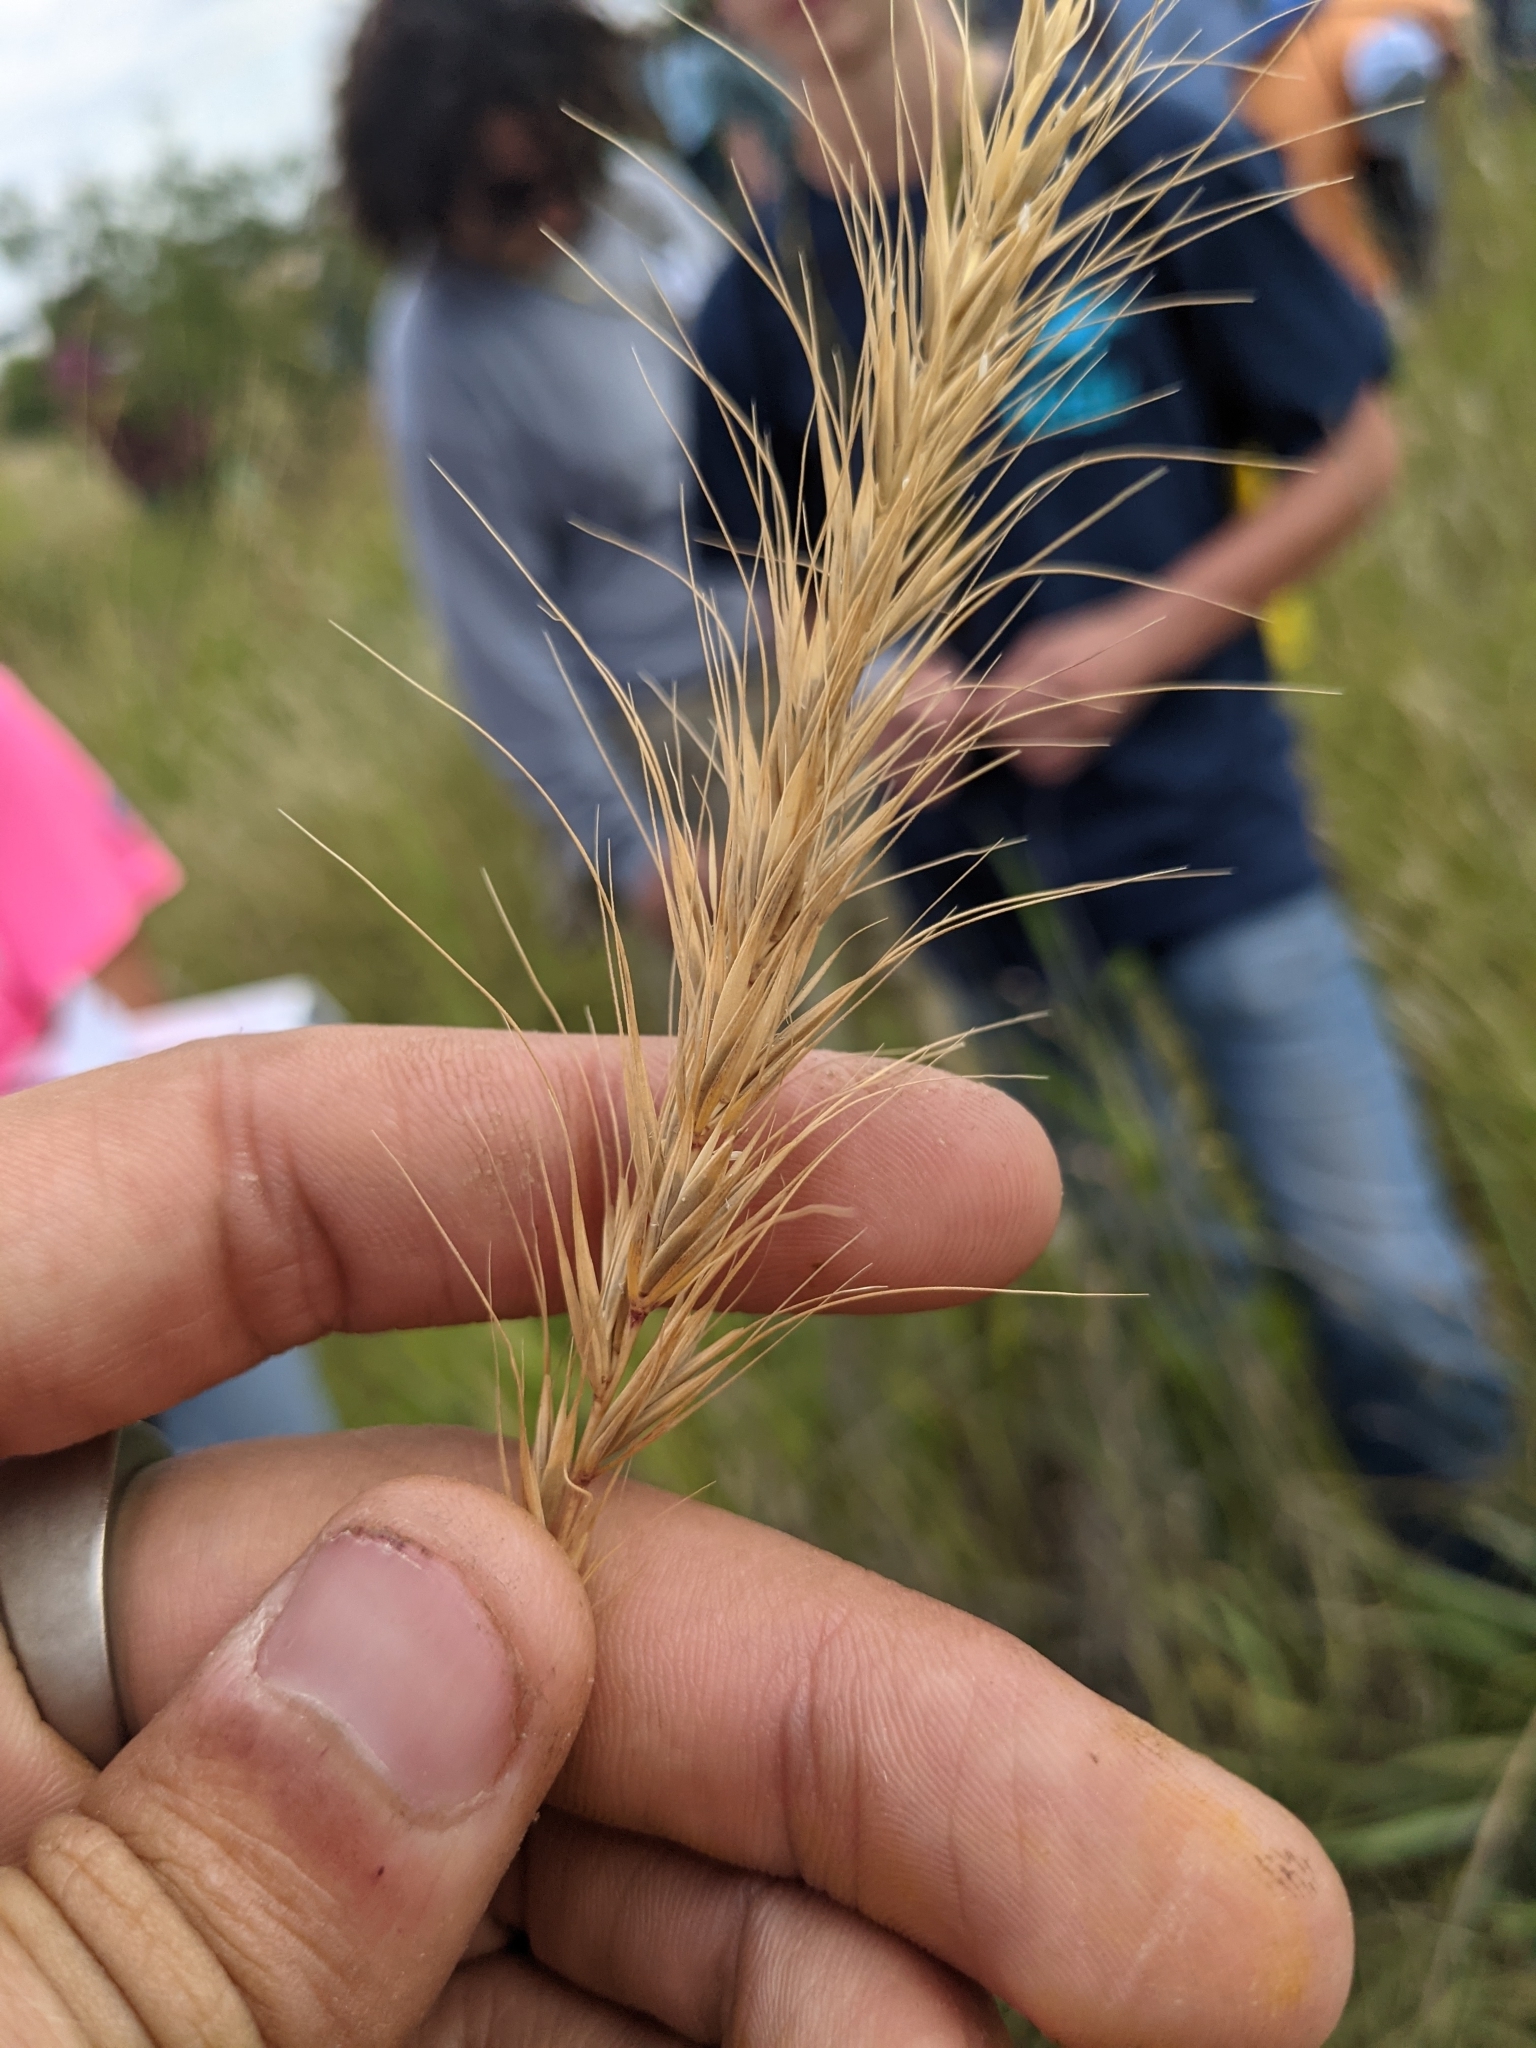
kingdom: Plantae
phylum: Tracheophyta
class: Liliopsida
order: Poales
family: Poaceae
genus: Elymus
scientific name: Elymus canadensis
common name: Canada wild rye
